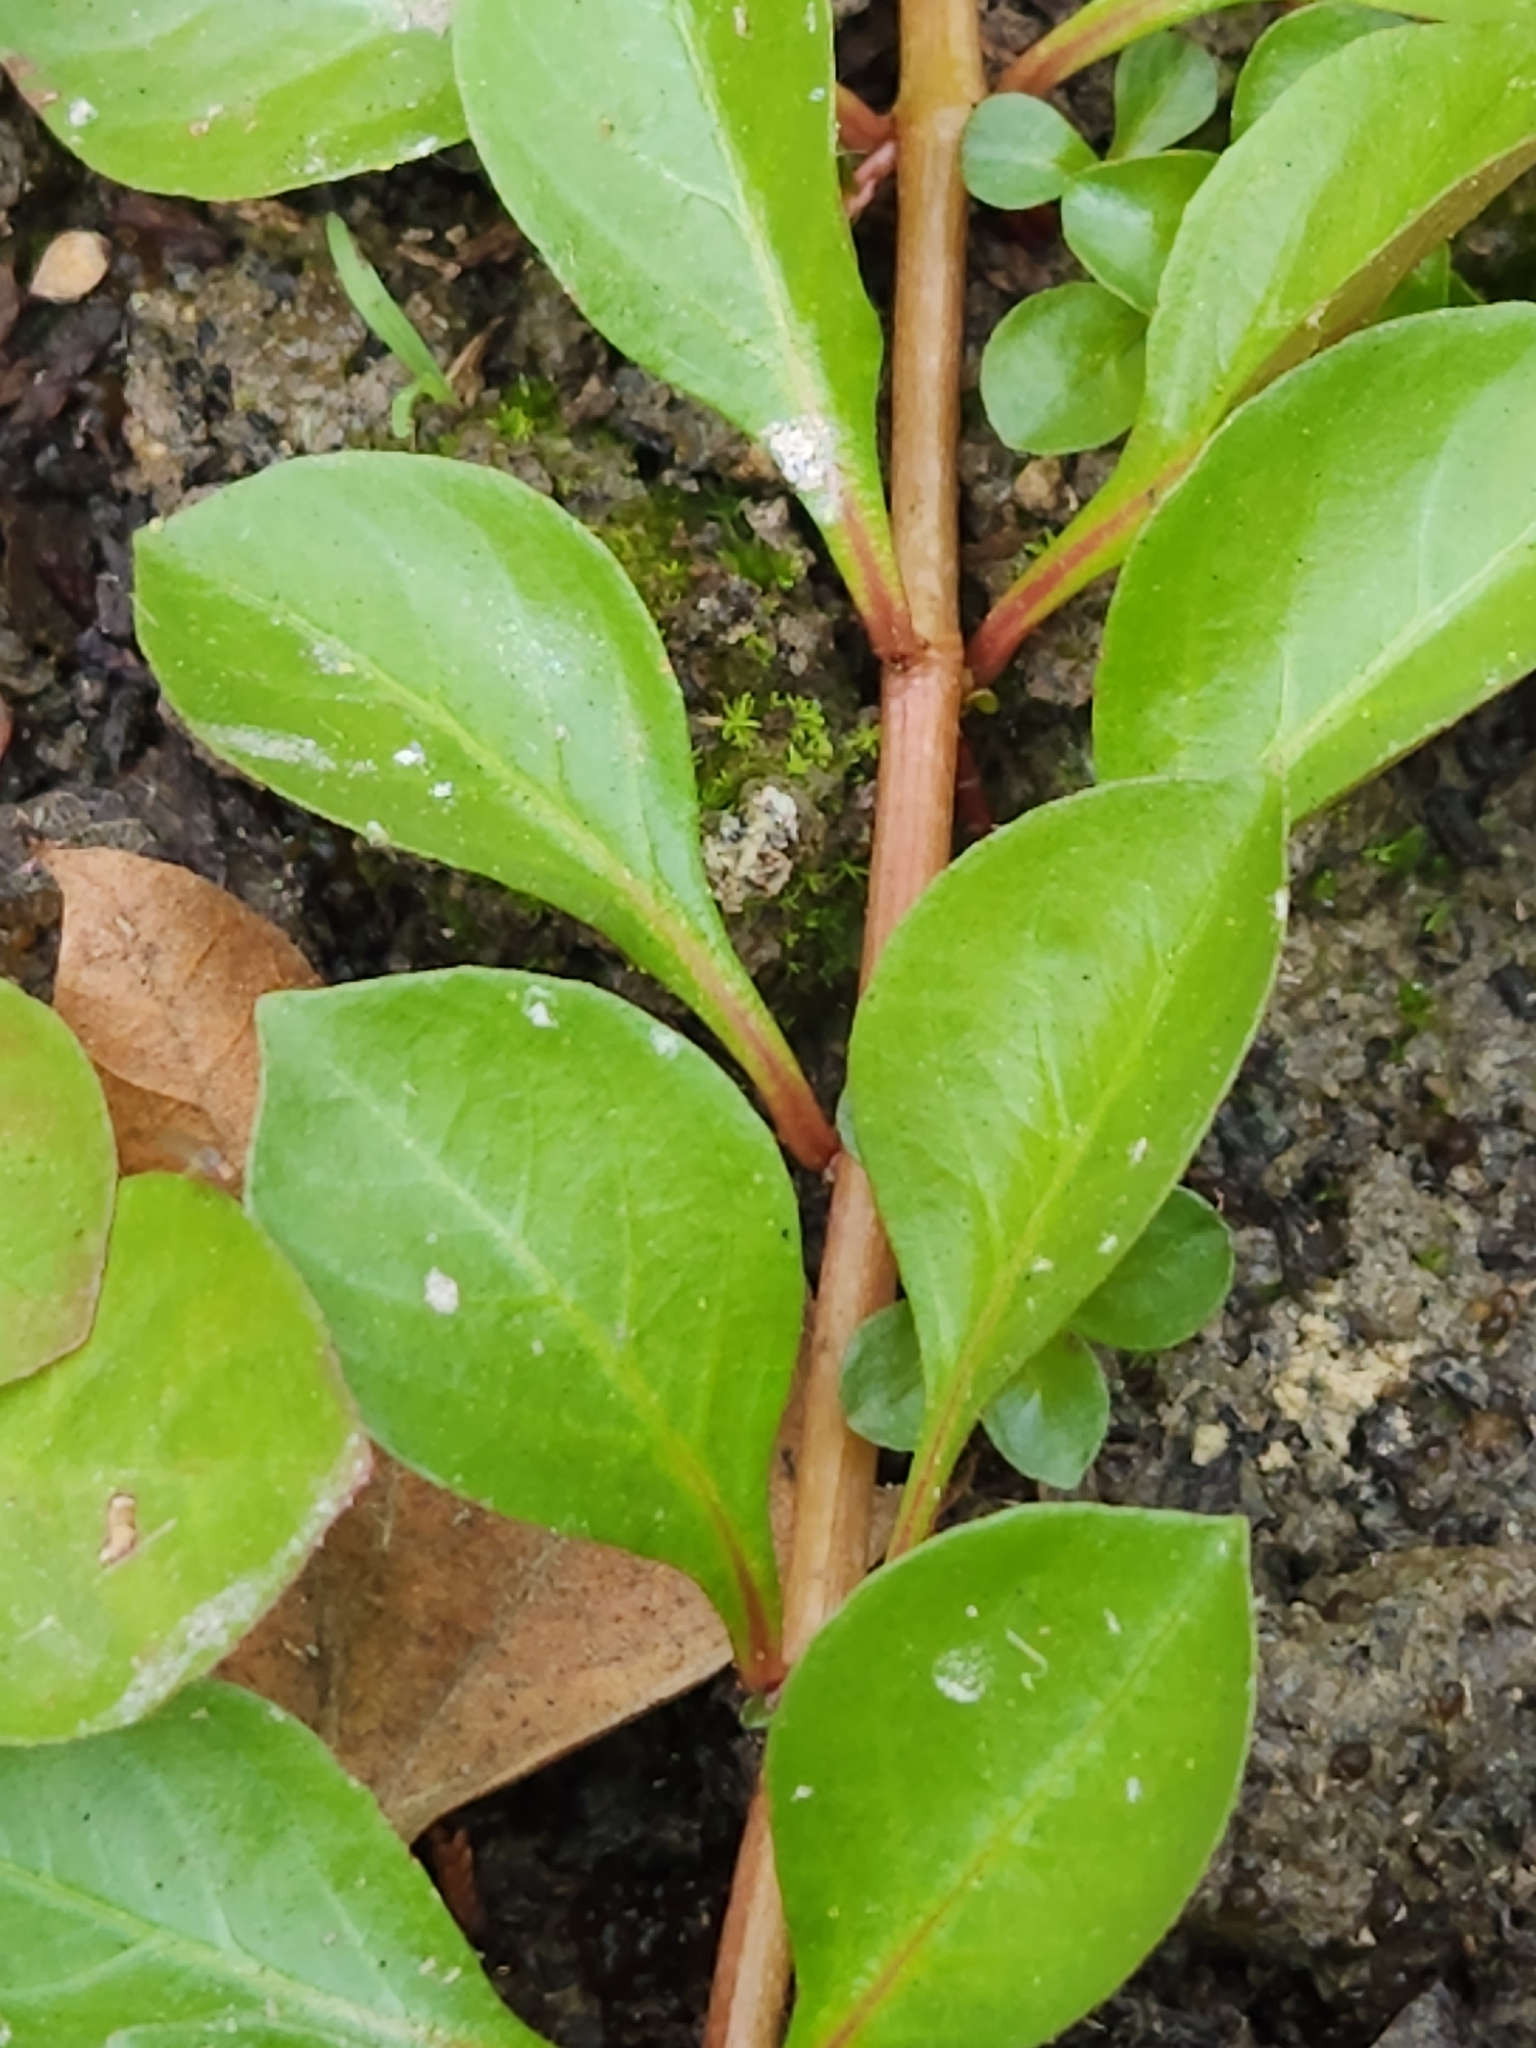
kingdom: Plantae
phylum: Tracheophyta
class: Magnoliopsida
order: Myrtales
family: Onagraceae
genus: Ludwigia
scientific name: Ludwigia palustris
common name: Hampshire-purslane
